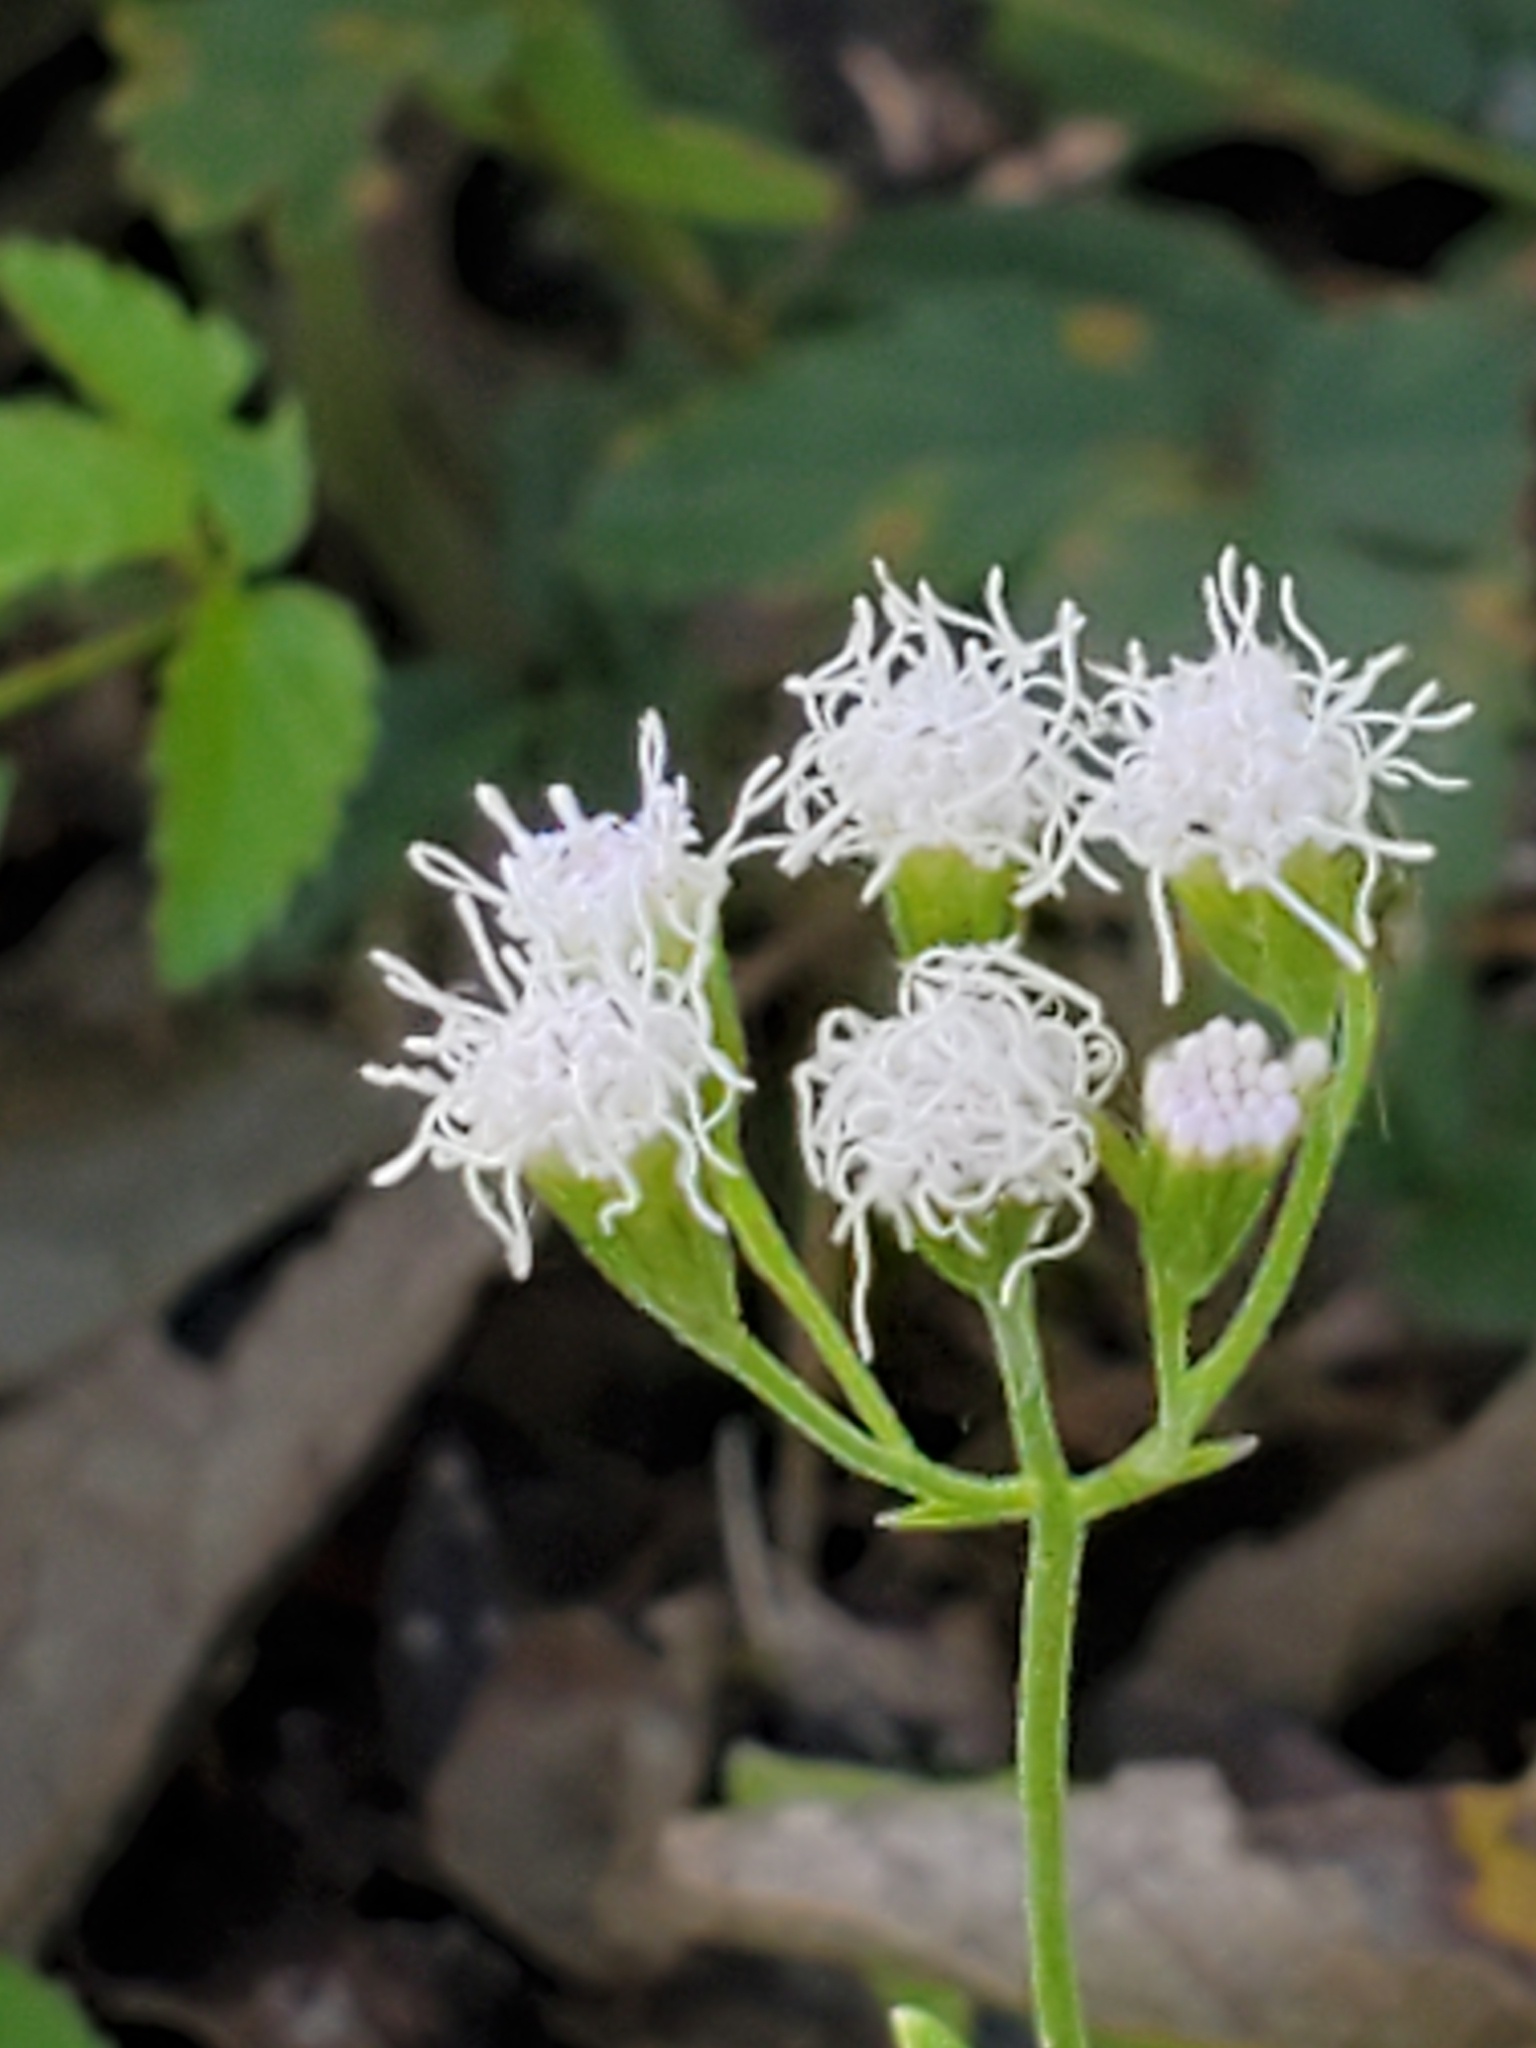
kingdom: Plantae
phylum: Tracheophyta
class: Magnoliopsida
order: Asterales
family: Asteraceae
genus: Fleischmannia
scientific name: Fleischmannia incarnata
